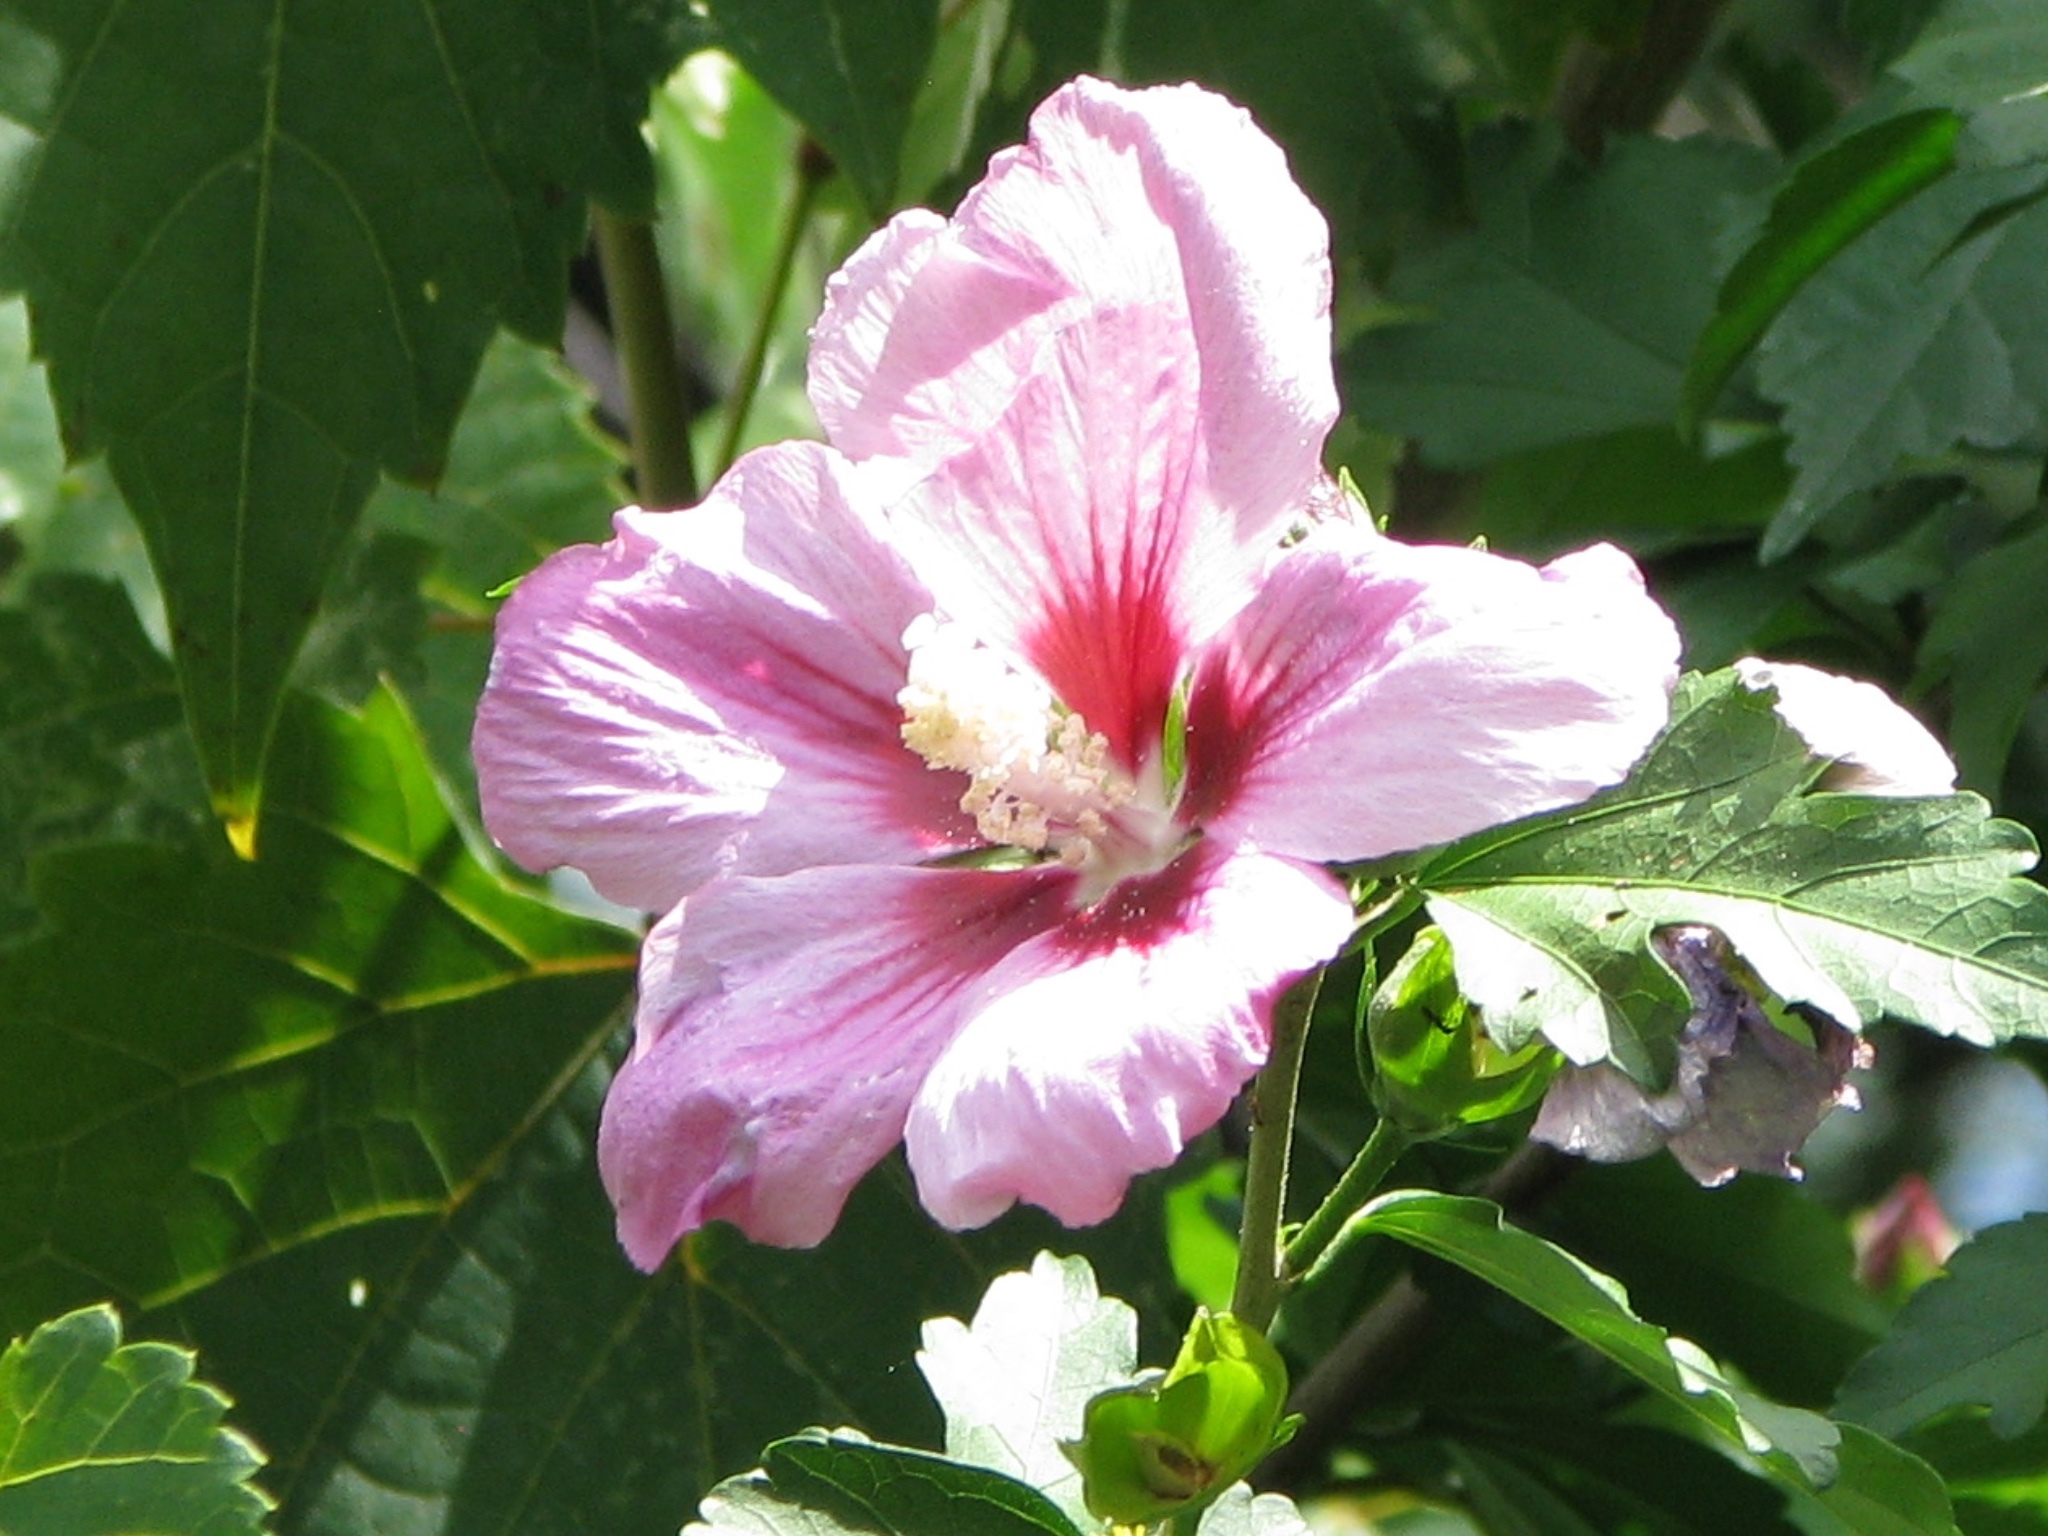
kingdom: Plantae
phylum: Tracheophyta
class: Magnoliopsida
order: Malvales
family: Malvaceae
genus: Hibiscus
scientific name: Hibiscus syriacus
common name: Syrian ketmia
